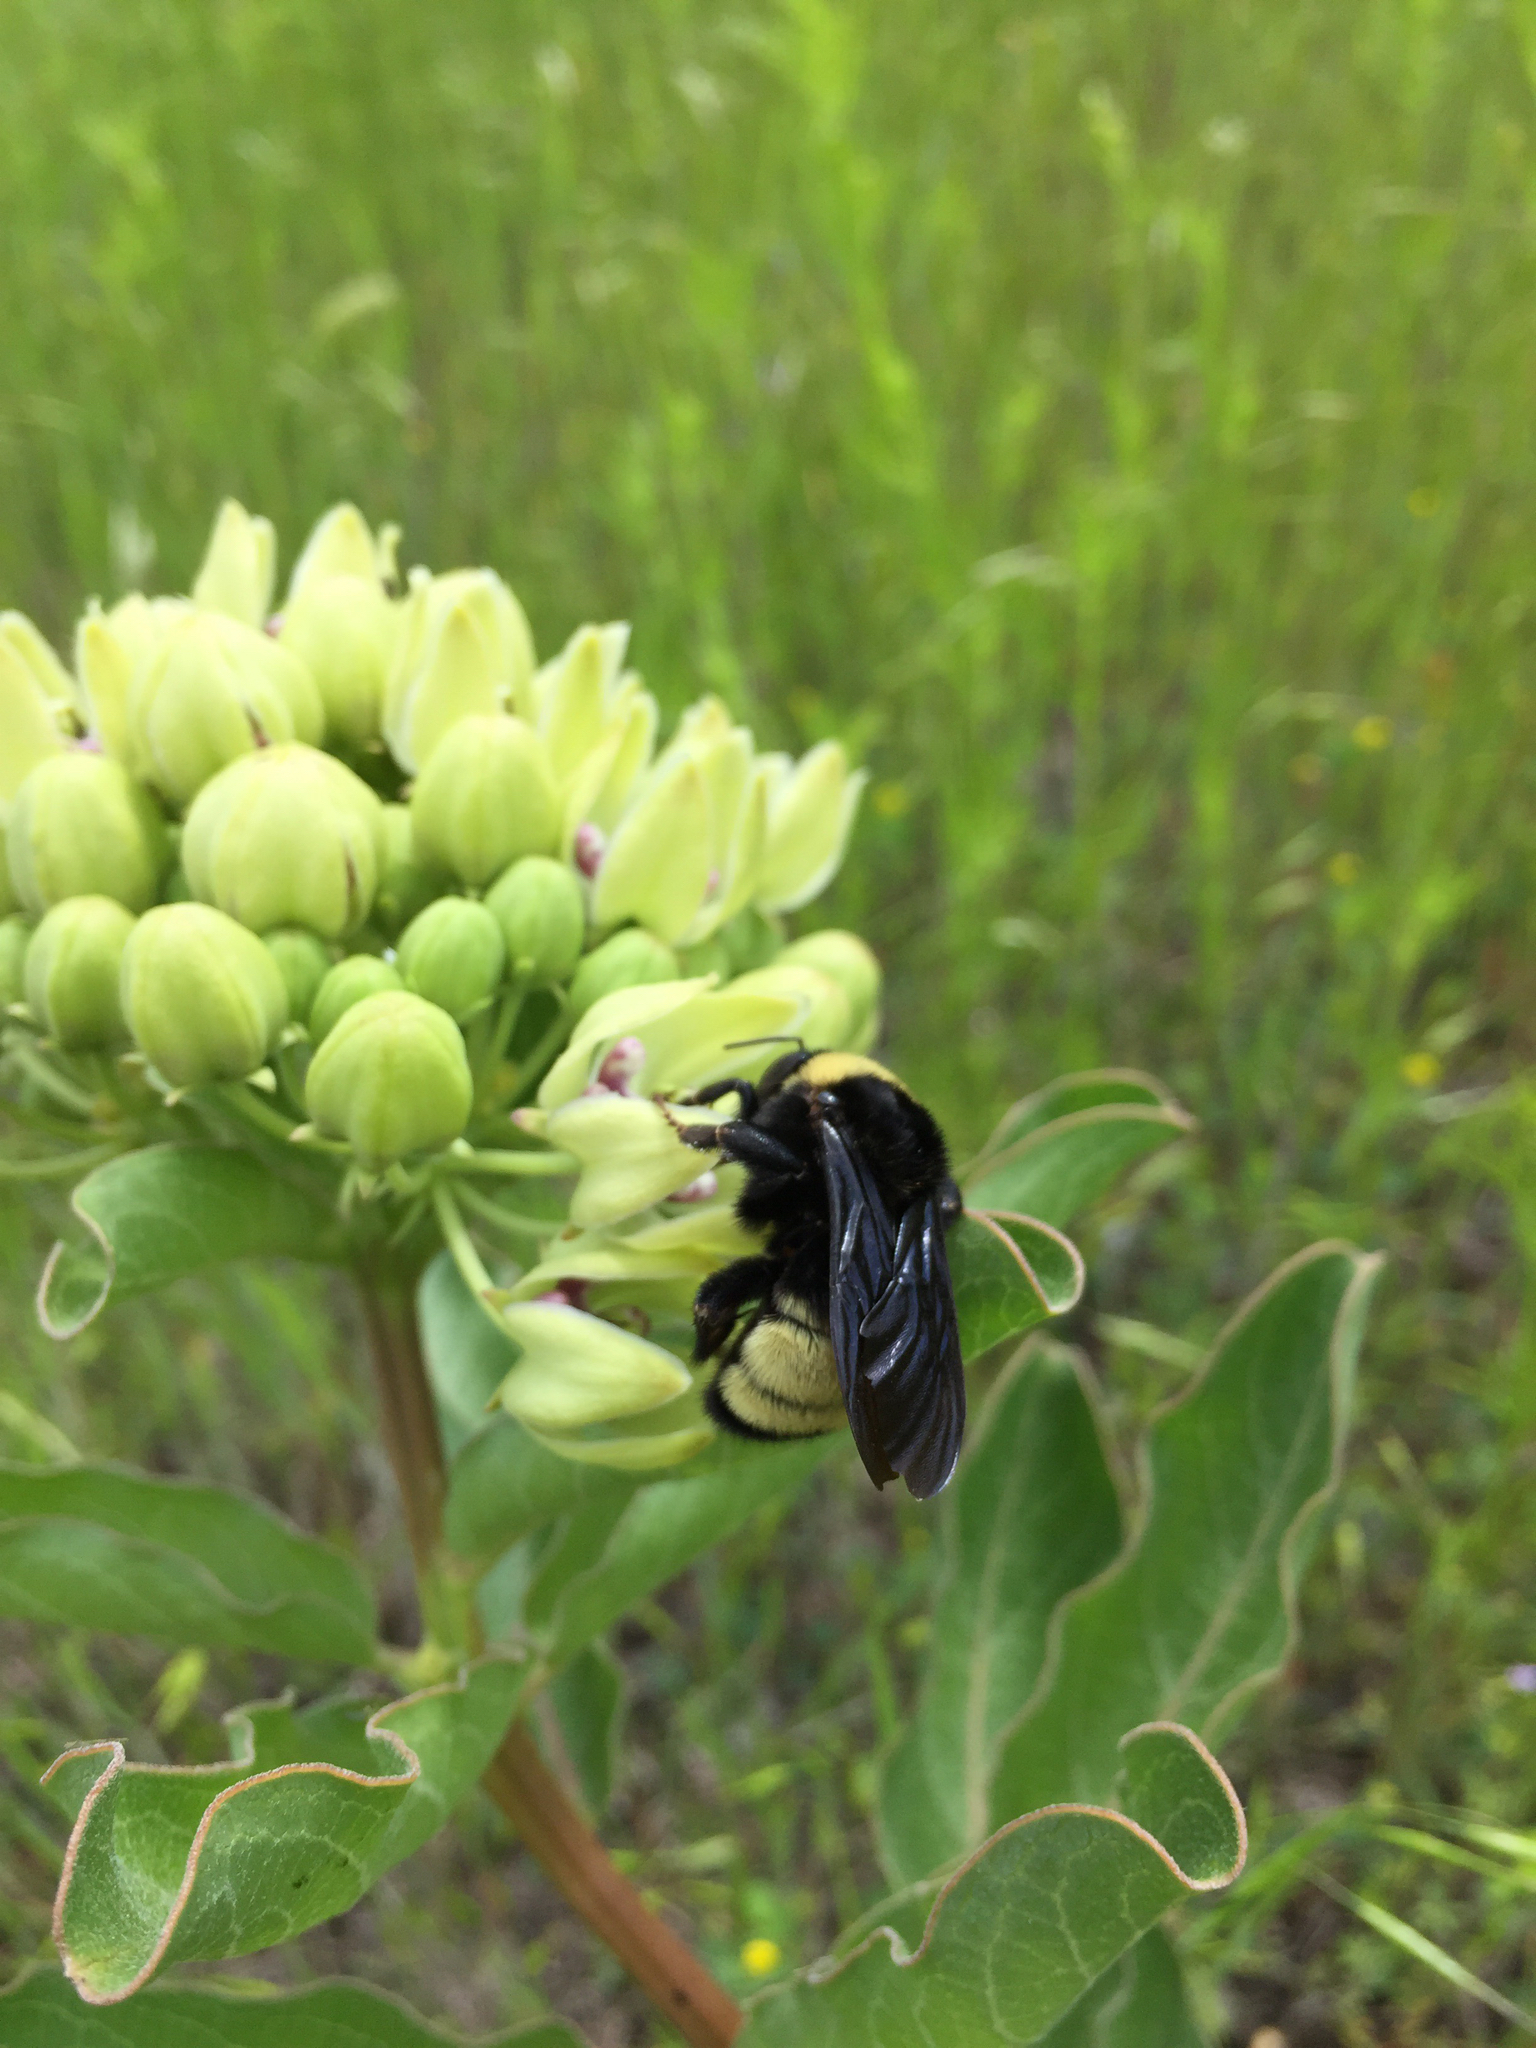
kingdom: Animalia
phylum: Arthropoda
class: Insecta
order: Hymenoptera
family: Apidae
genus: Bombus
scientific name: Bombus pensylvanicus
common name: Bumble bee
